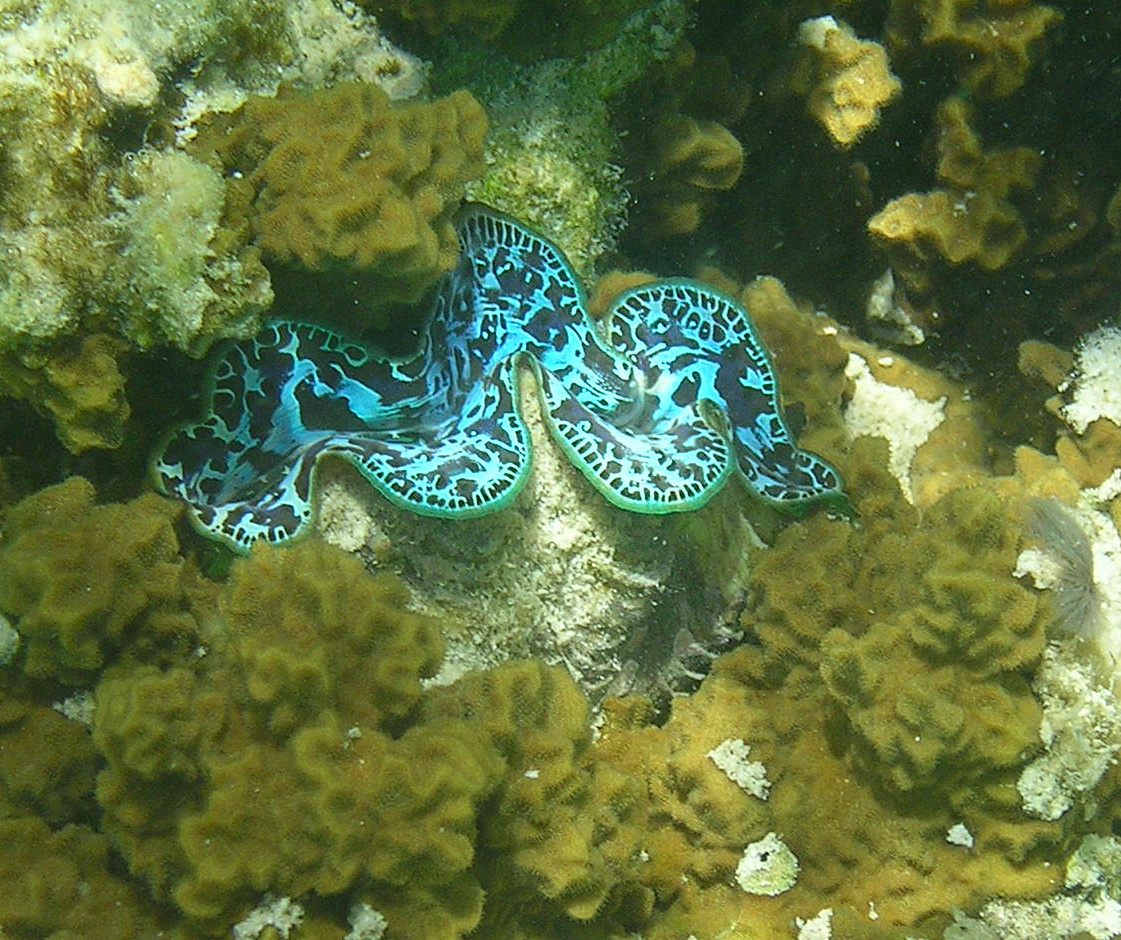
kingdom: Animalia
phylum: Mollusca
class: Bivalvia
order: Cardiida
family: Cardiidae
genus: Tridacna
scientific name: Tridacna maxima
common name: Small giant clam
